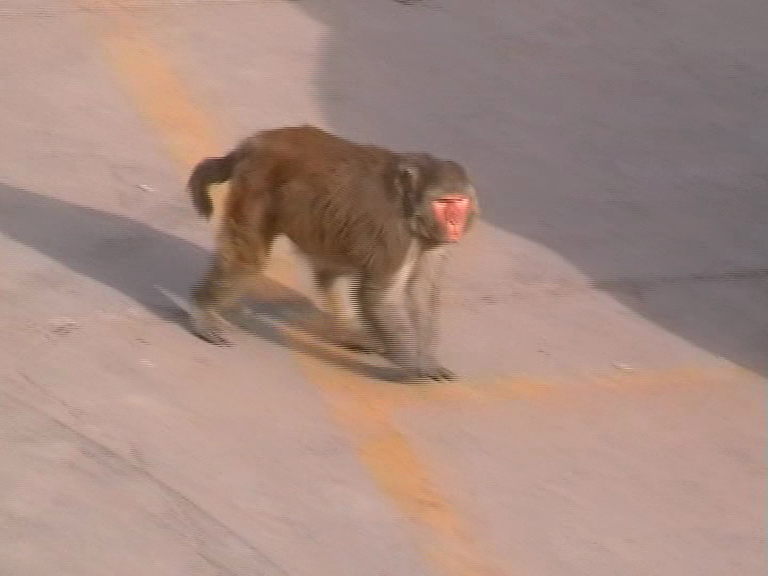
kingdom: Animalia
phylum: Chordata
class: Mammalia
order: Primates
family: Cercopithecidae
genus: Macaca
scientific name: Macaca mulatta
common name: Rhesus monkey
